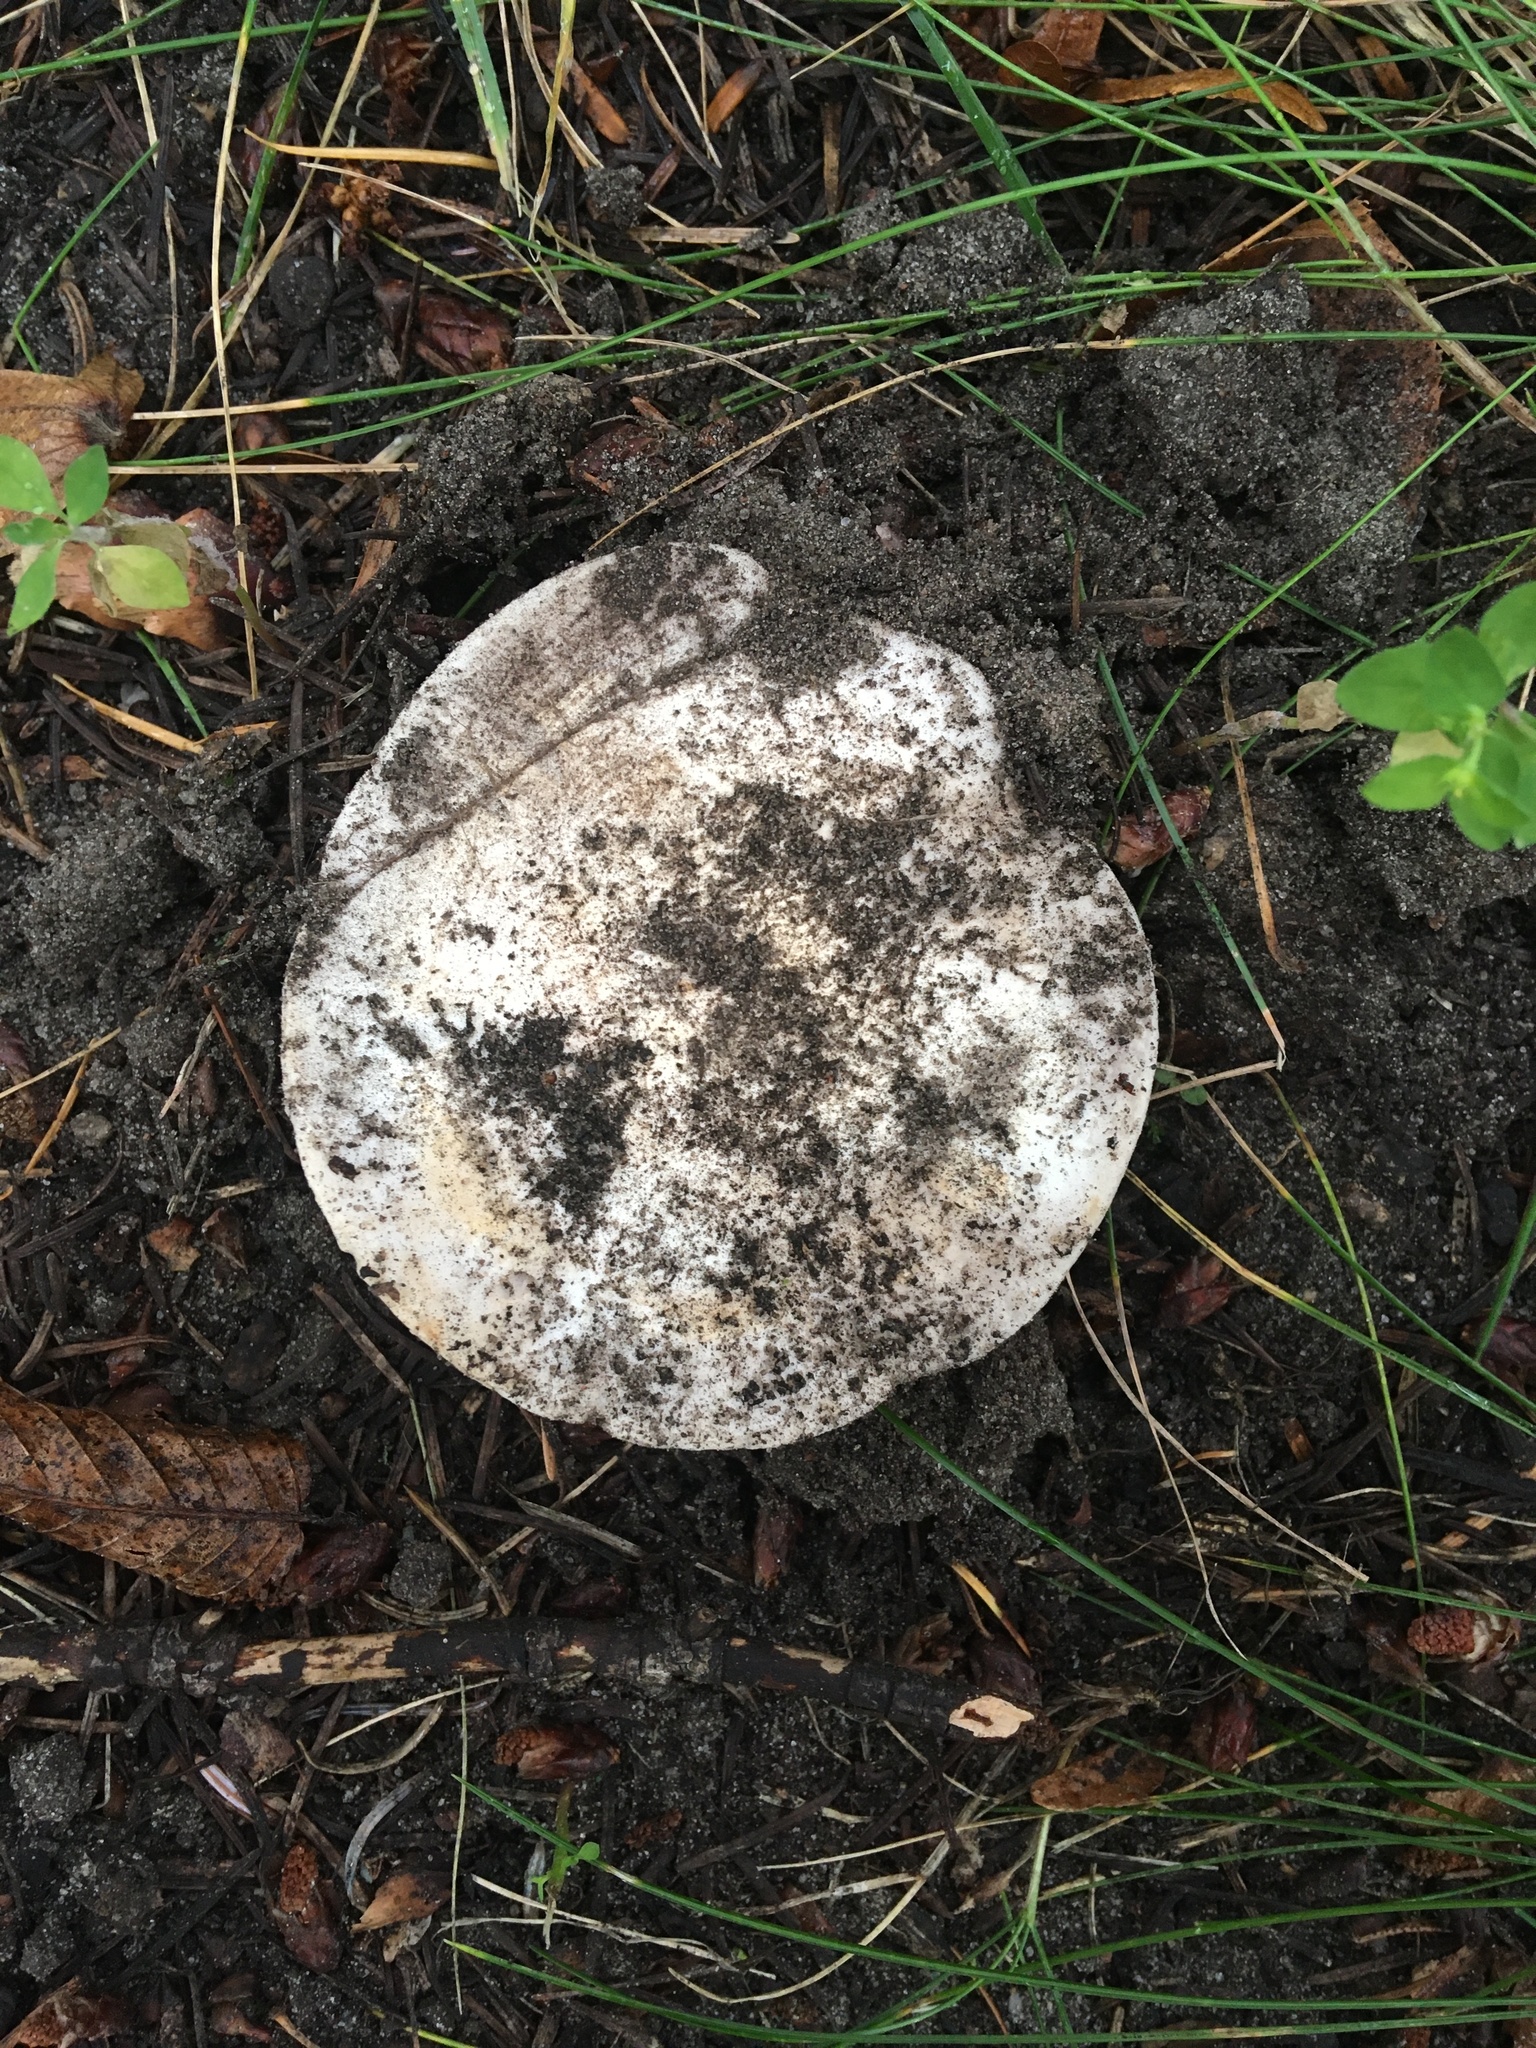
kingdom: Fungi
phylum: Basidiomycota
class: Agaricomycetes
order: Agaricales
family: Agaricaceae
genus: Agaricus
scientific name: Agaricus bitorquis
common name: Pavement mushroom
